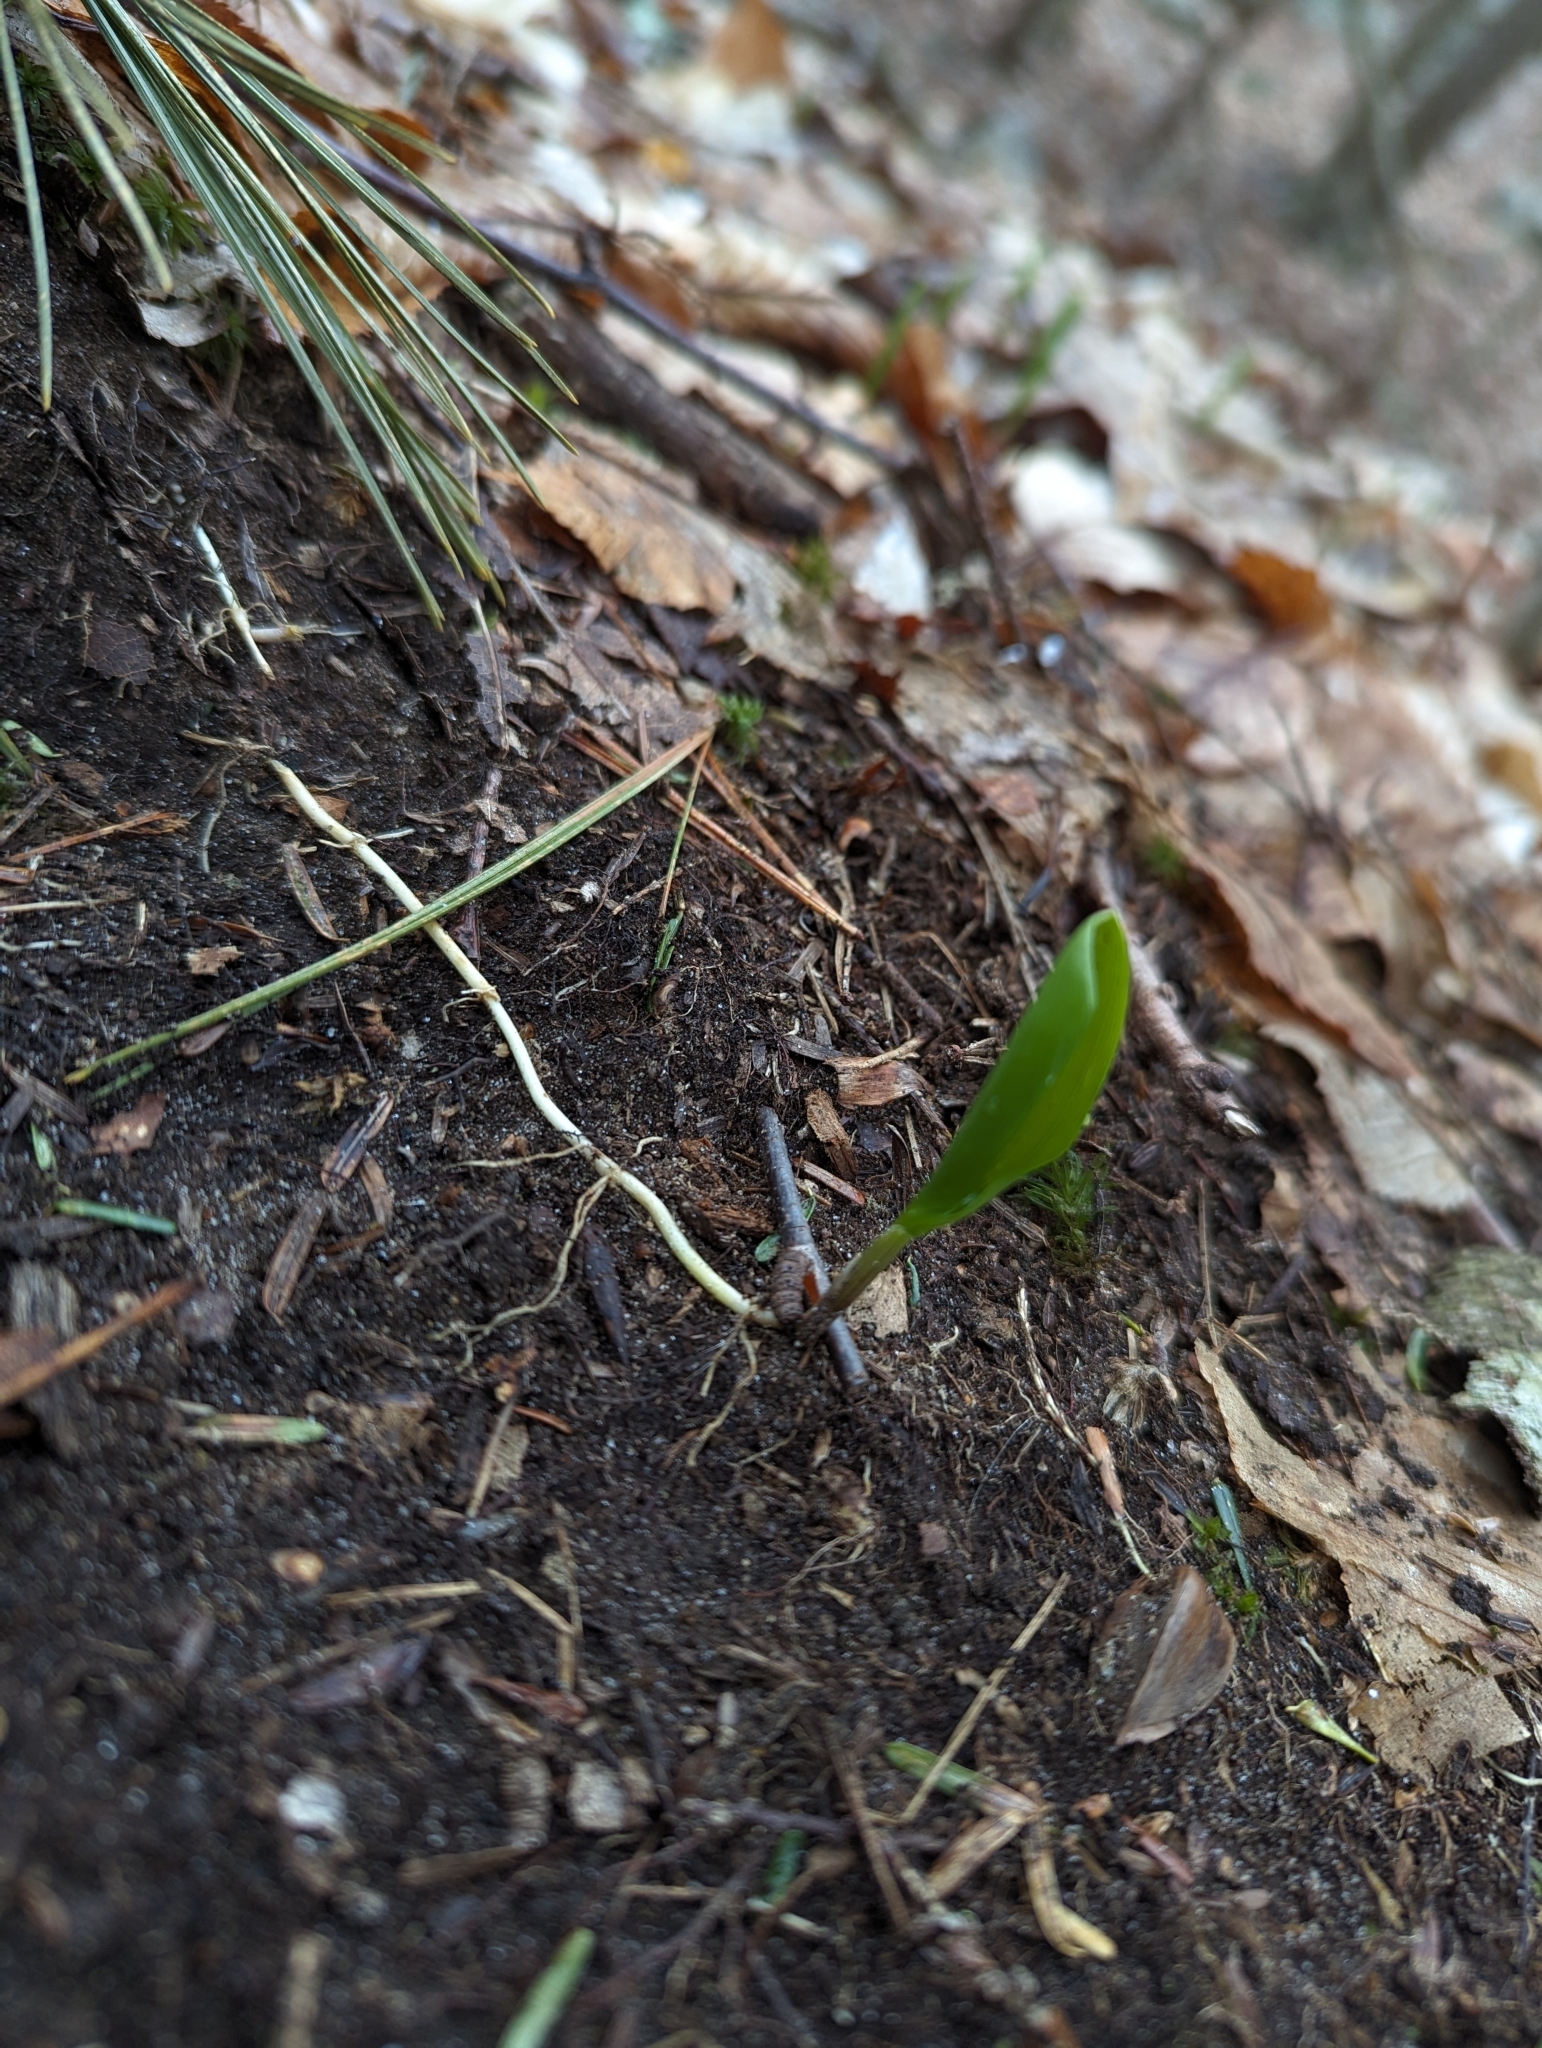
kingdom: Plantae
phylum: Tracheophyta
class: Liliopsida
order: Asparagales
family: Asparagaceae
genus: Maianthemum
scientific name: Maianthemum canadense
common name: False lily-of-the-valley
